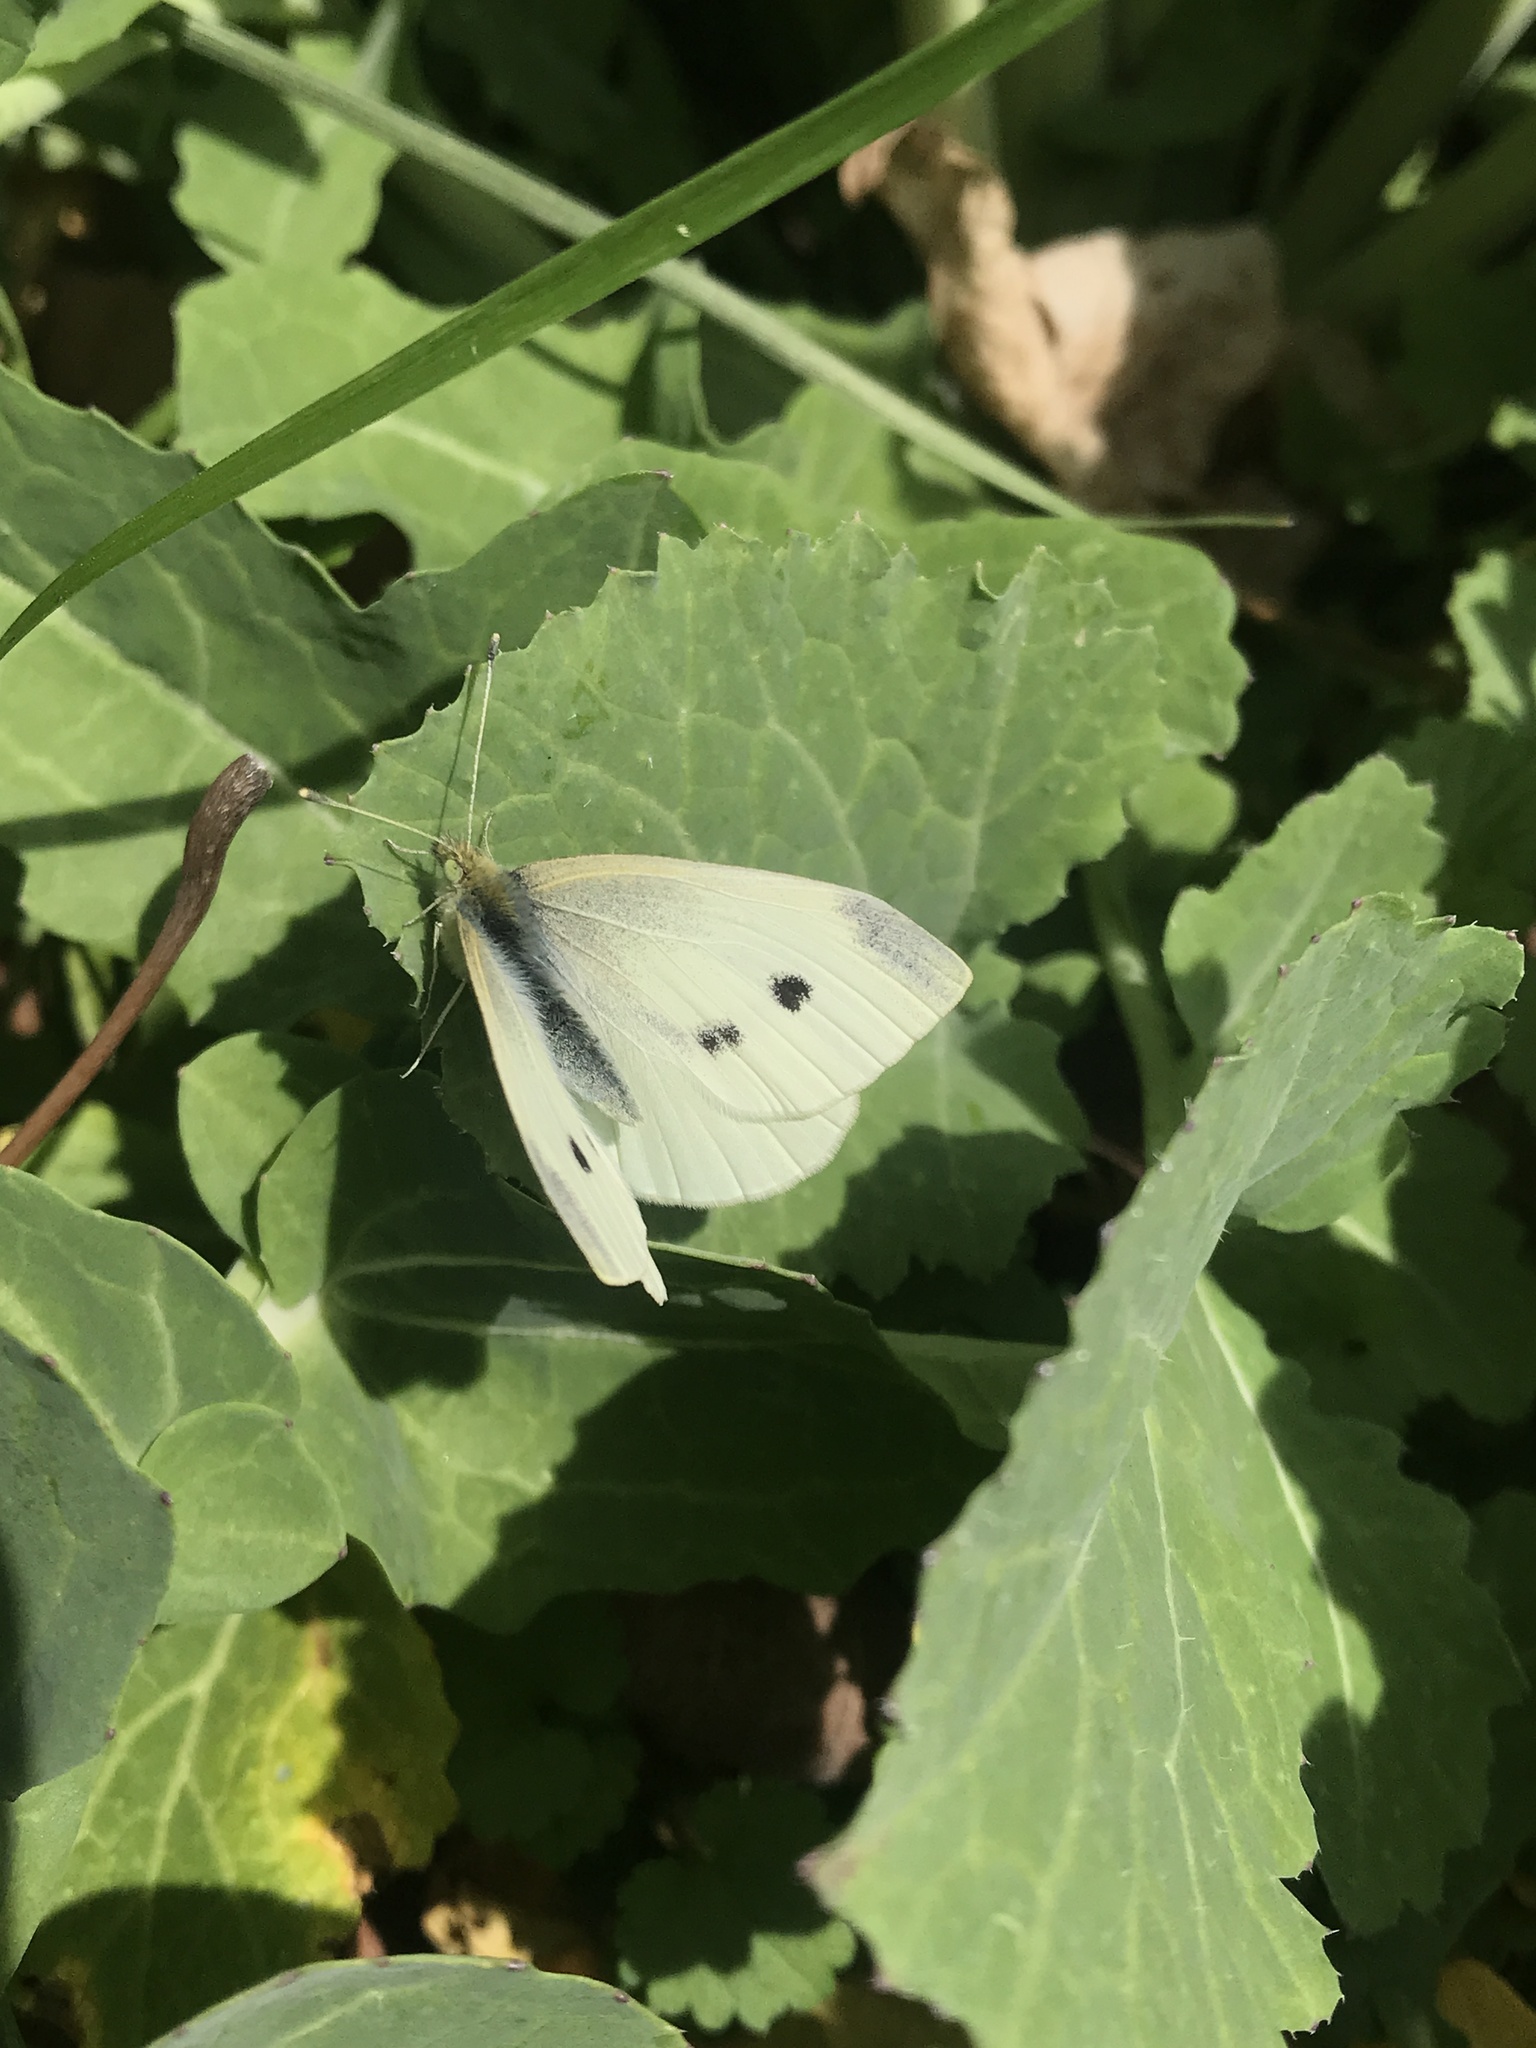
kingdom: Animalia
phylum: Arthropoda
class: Insecta
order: Lepidoptera
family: Pieridae
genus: Pieris
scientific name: Pieris rapae
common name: Small white
